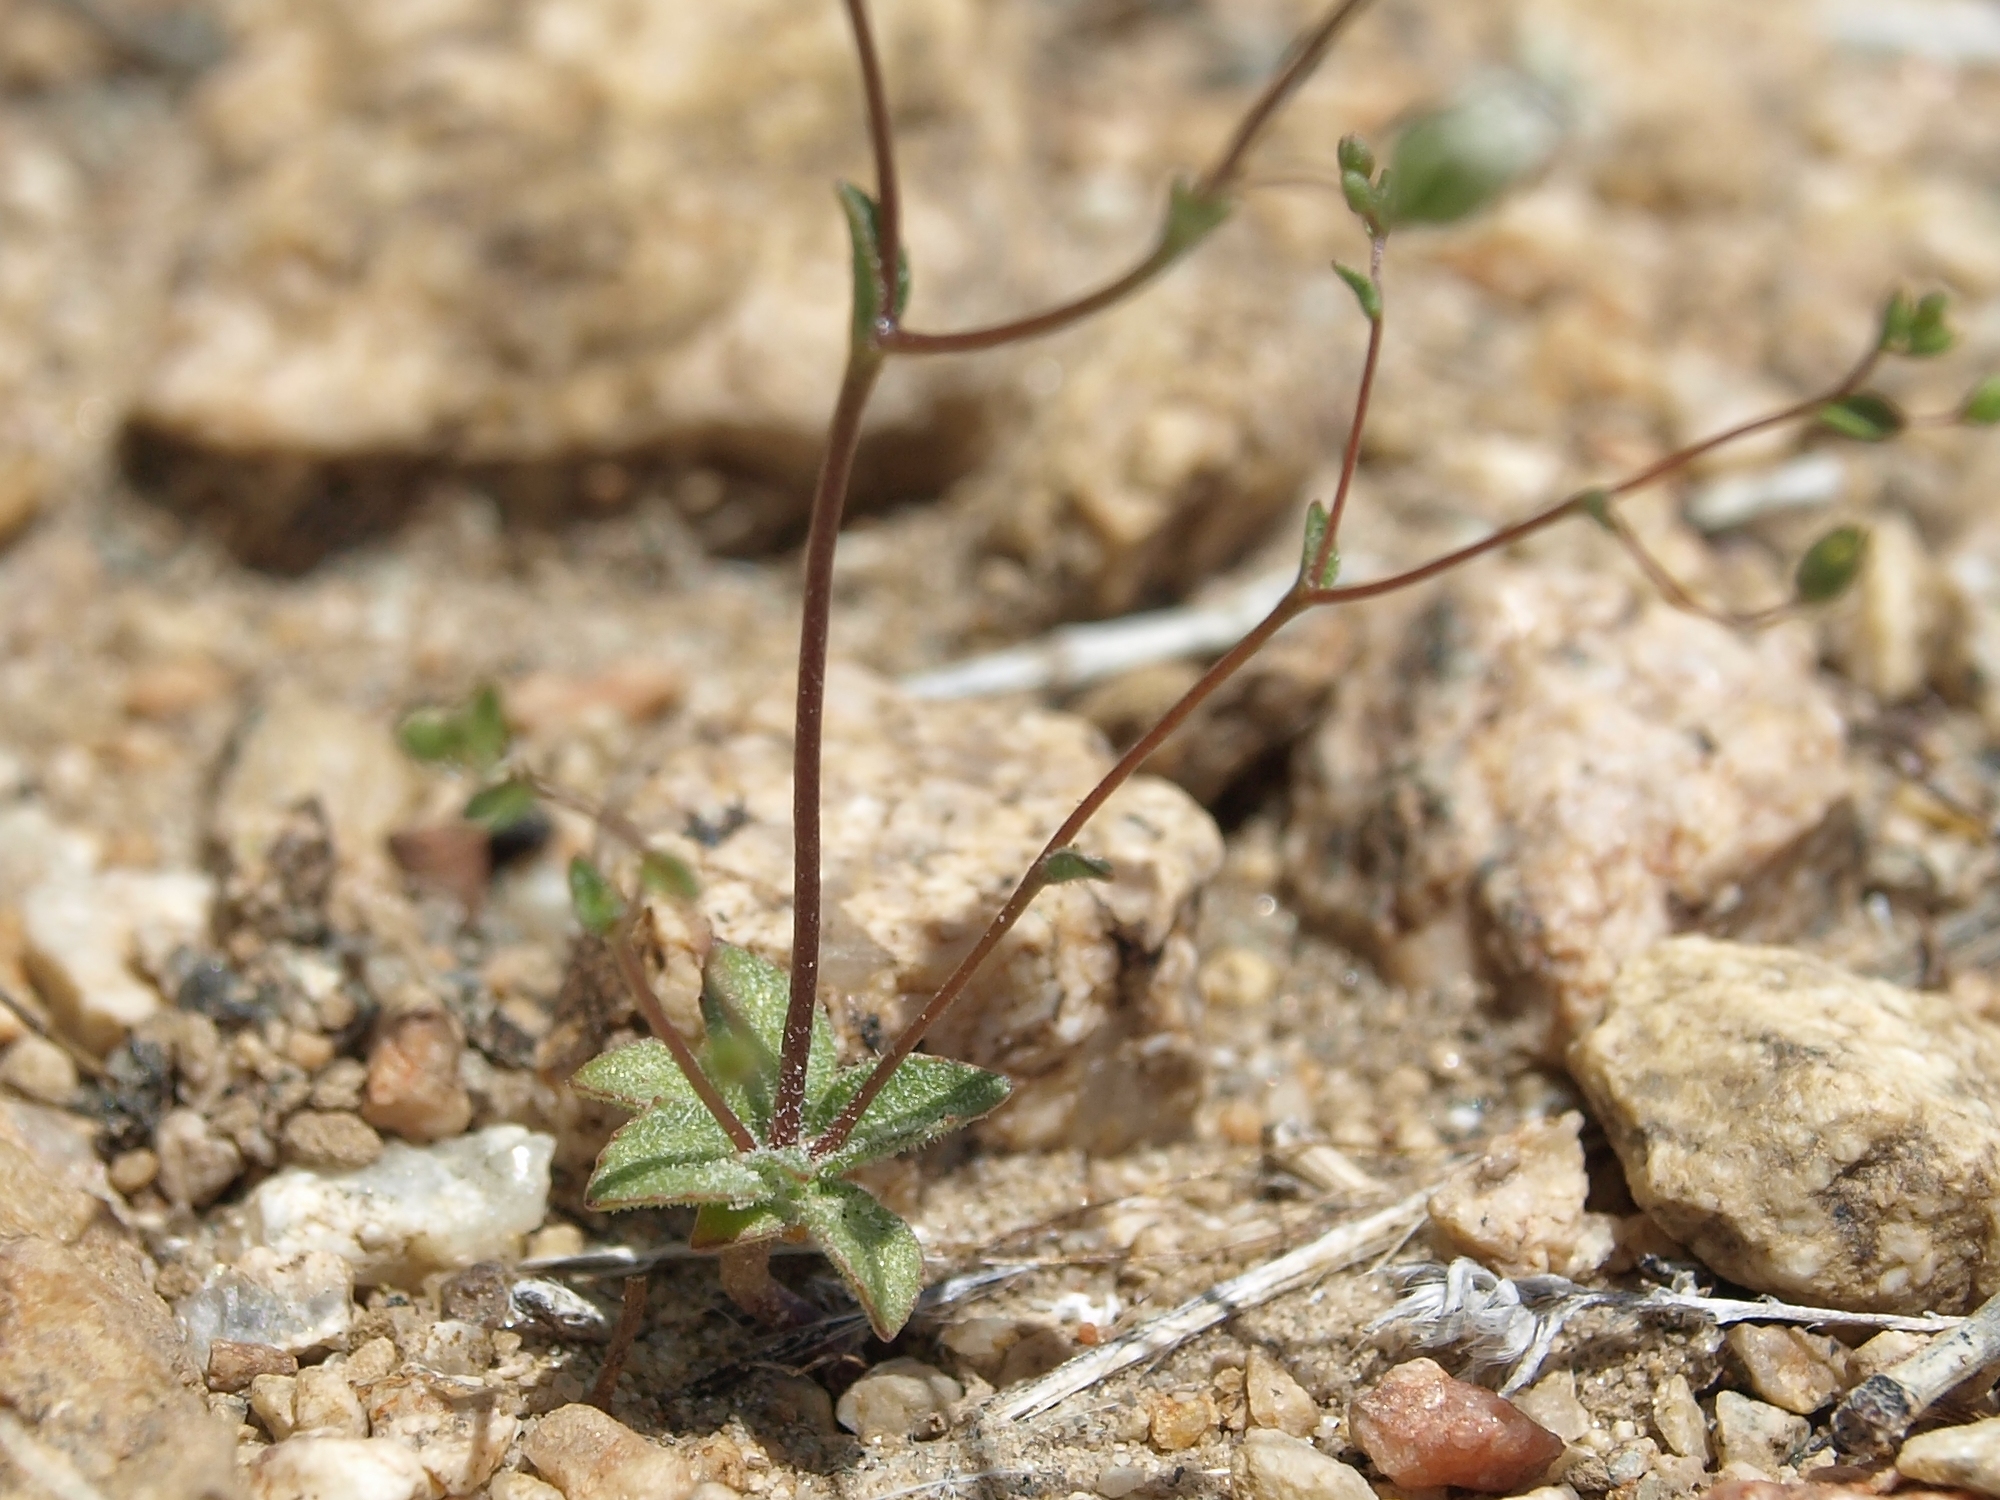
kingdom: Plantae
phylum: Tracheophyta
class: Magnoliopsida
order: Asterales
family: Campanulaceae
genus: Nemacladus
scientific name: Nemacladus sigmoideus
